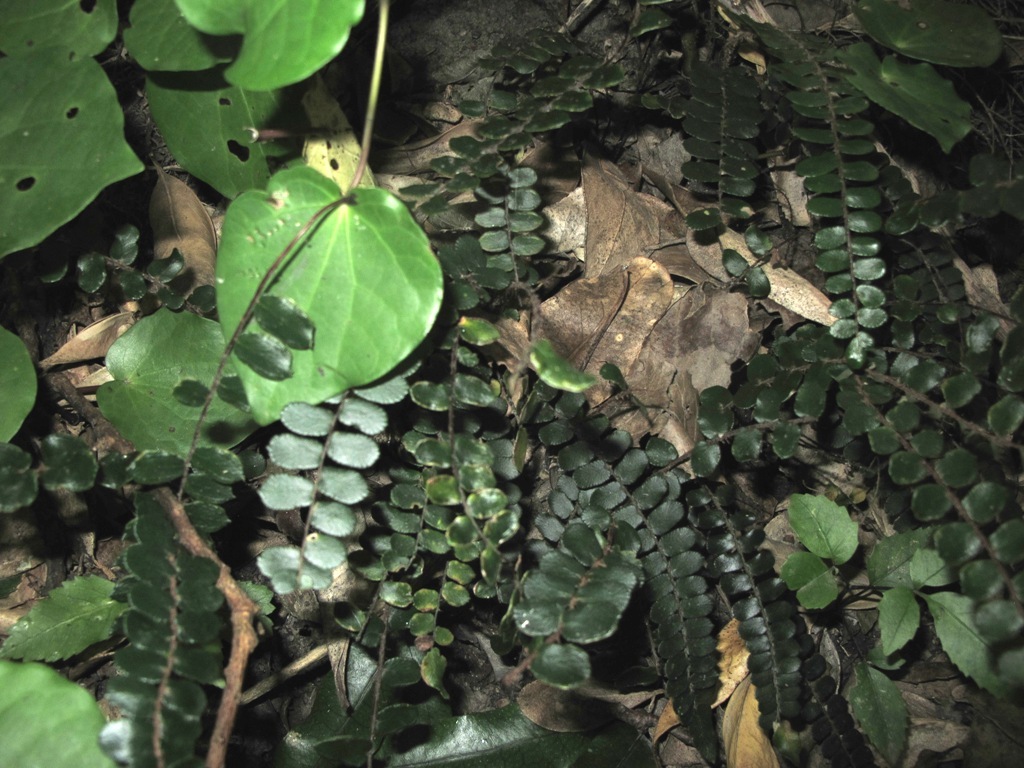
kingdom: Plantae
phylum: Tracheophyta
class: Polypodiopsida
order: Polypodiales
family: Pteridaceae
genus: Pellaea
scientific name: Pellaea rotundifolia
